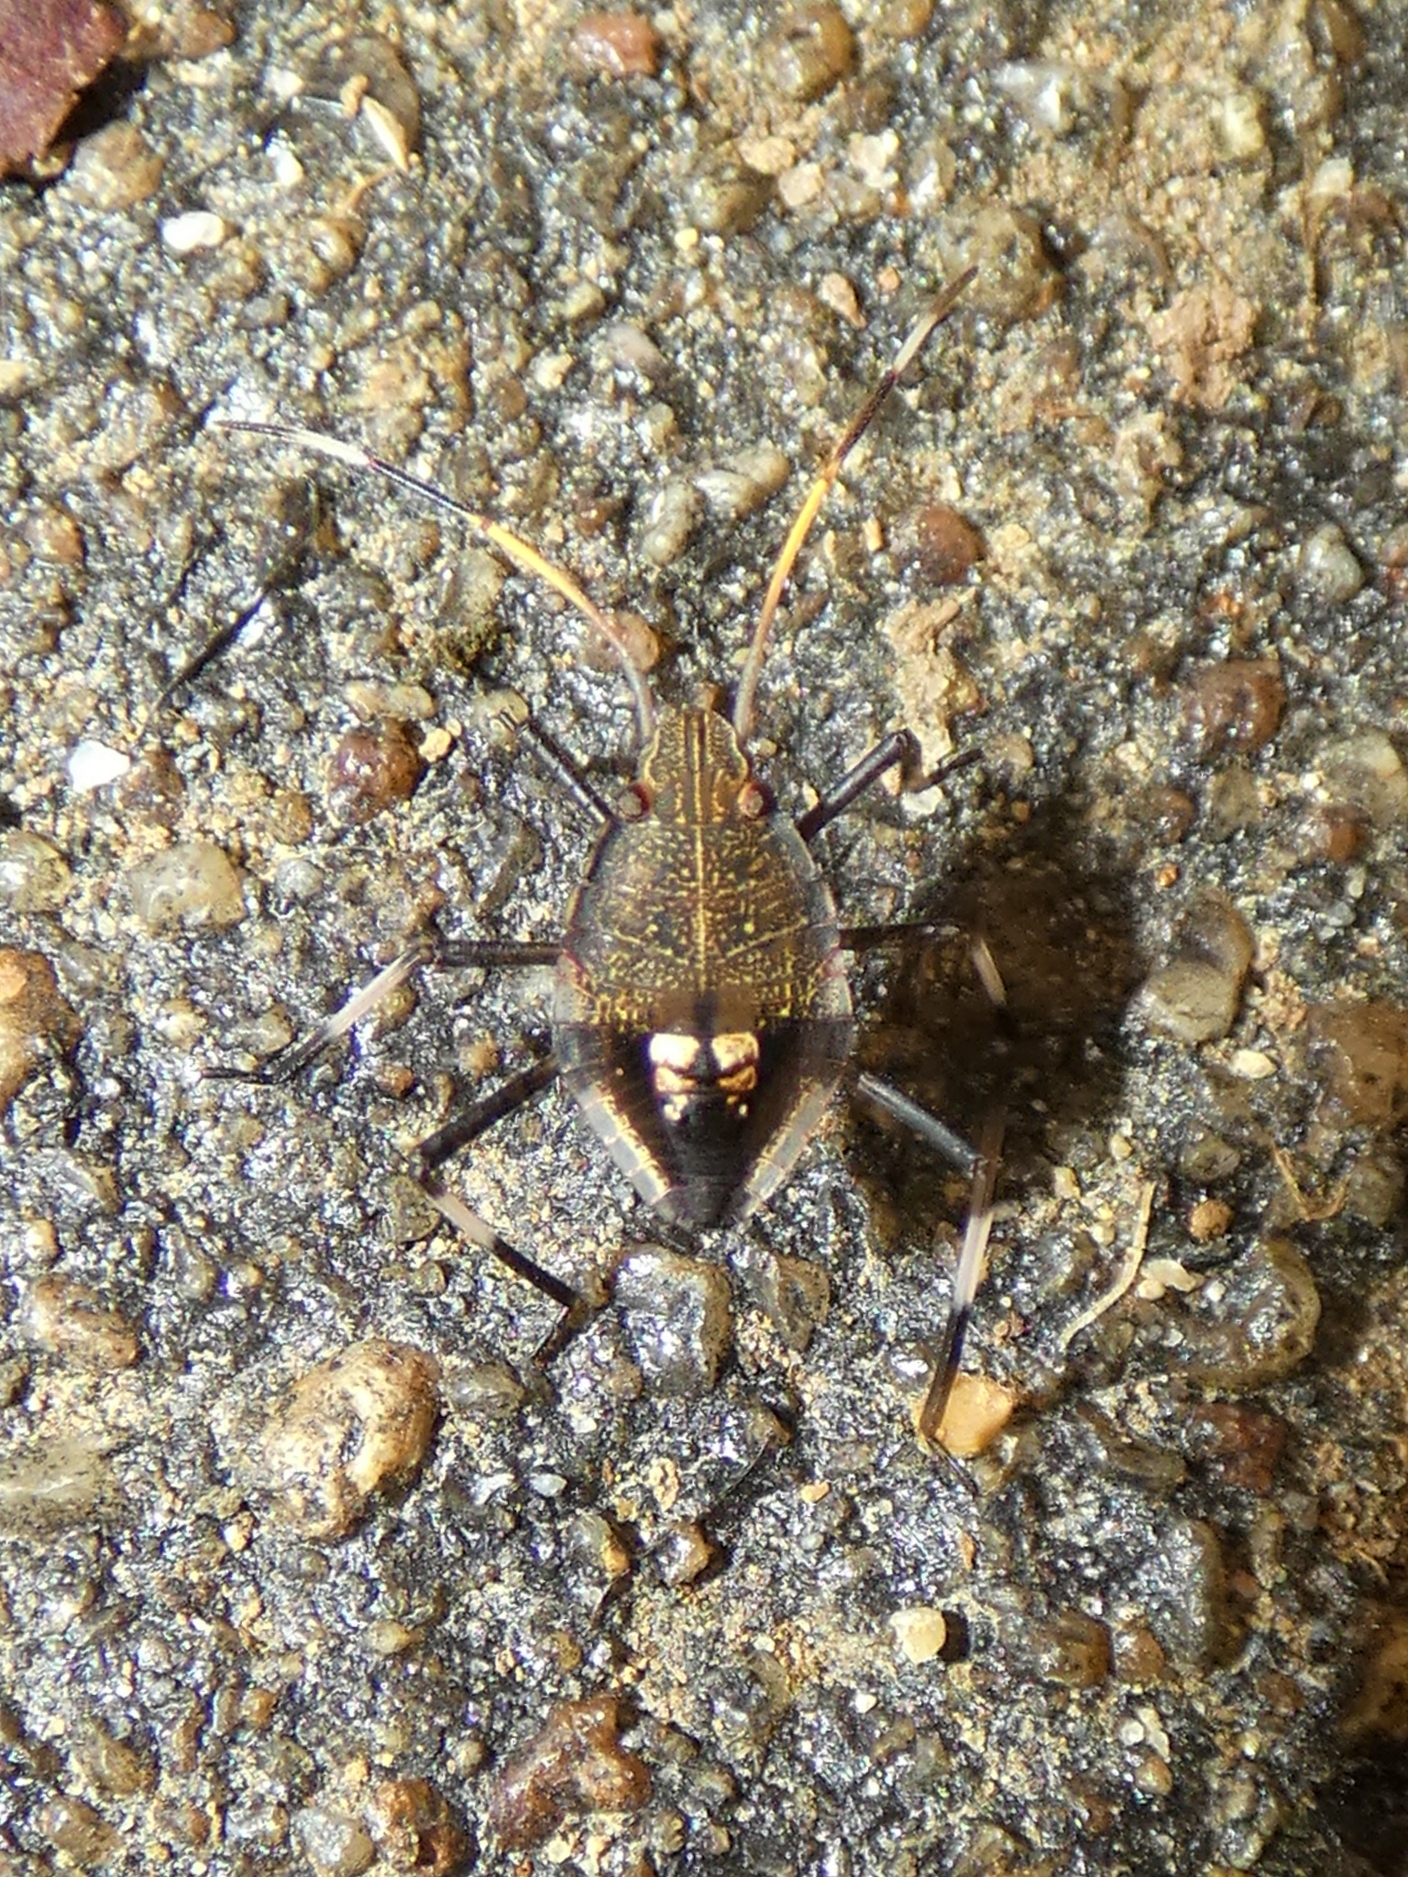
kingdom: Animalia
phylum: Arthropoda
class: Insecta
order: Hemiptera
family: Pentatomidae
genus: Poecilometis
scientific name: Poecilometis
